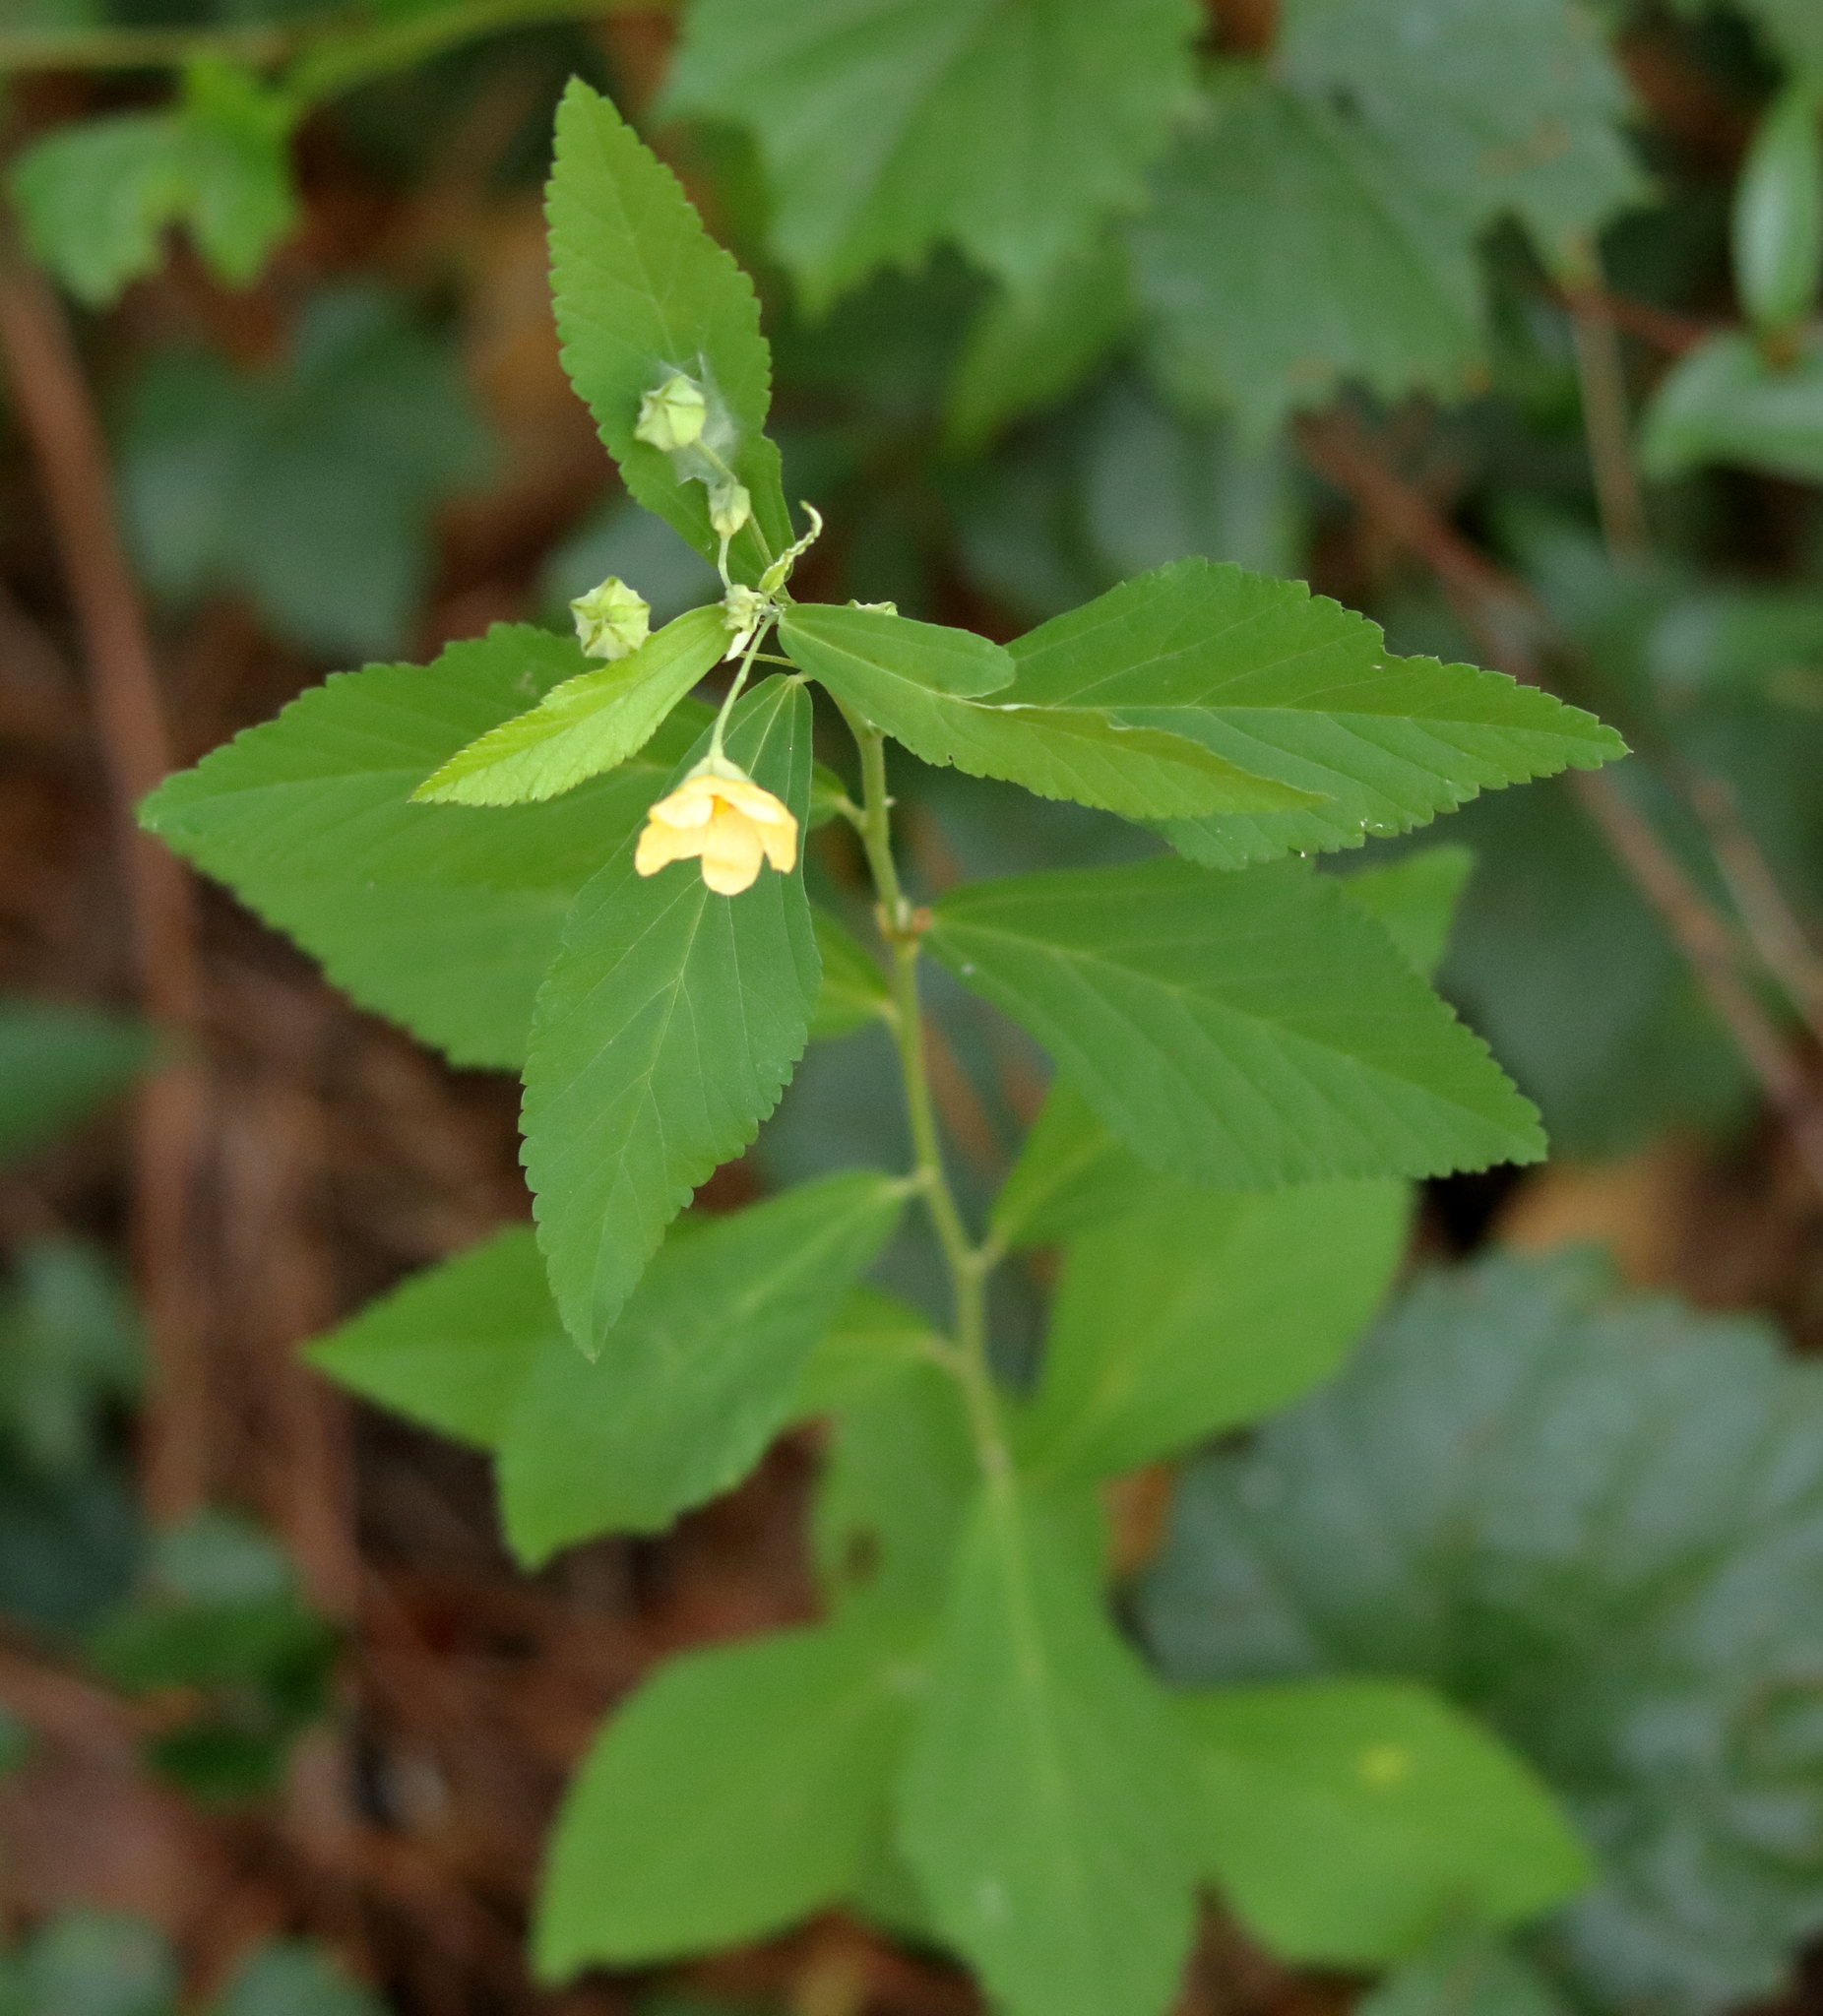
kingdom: Plantae
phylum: Tracheophyta
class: Magnoliopsida
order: Malvales
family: Malvaceae
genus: Sida
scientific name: Sida rhombifolia
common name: Queensland-hemp
